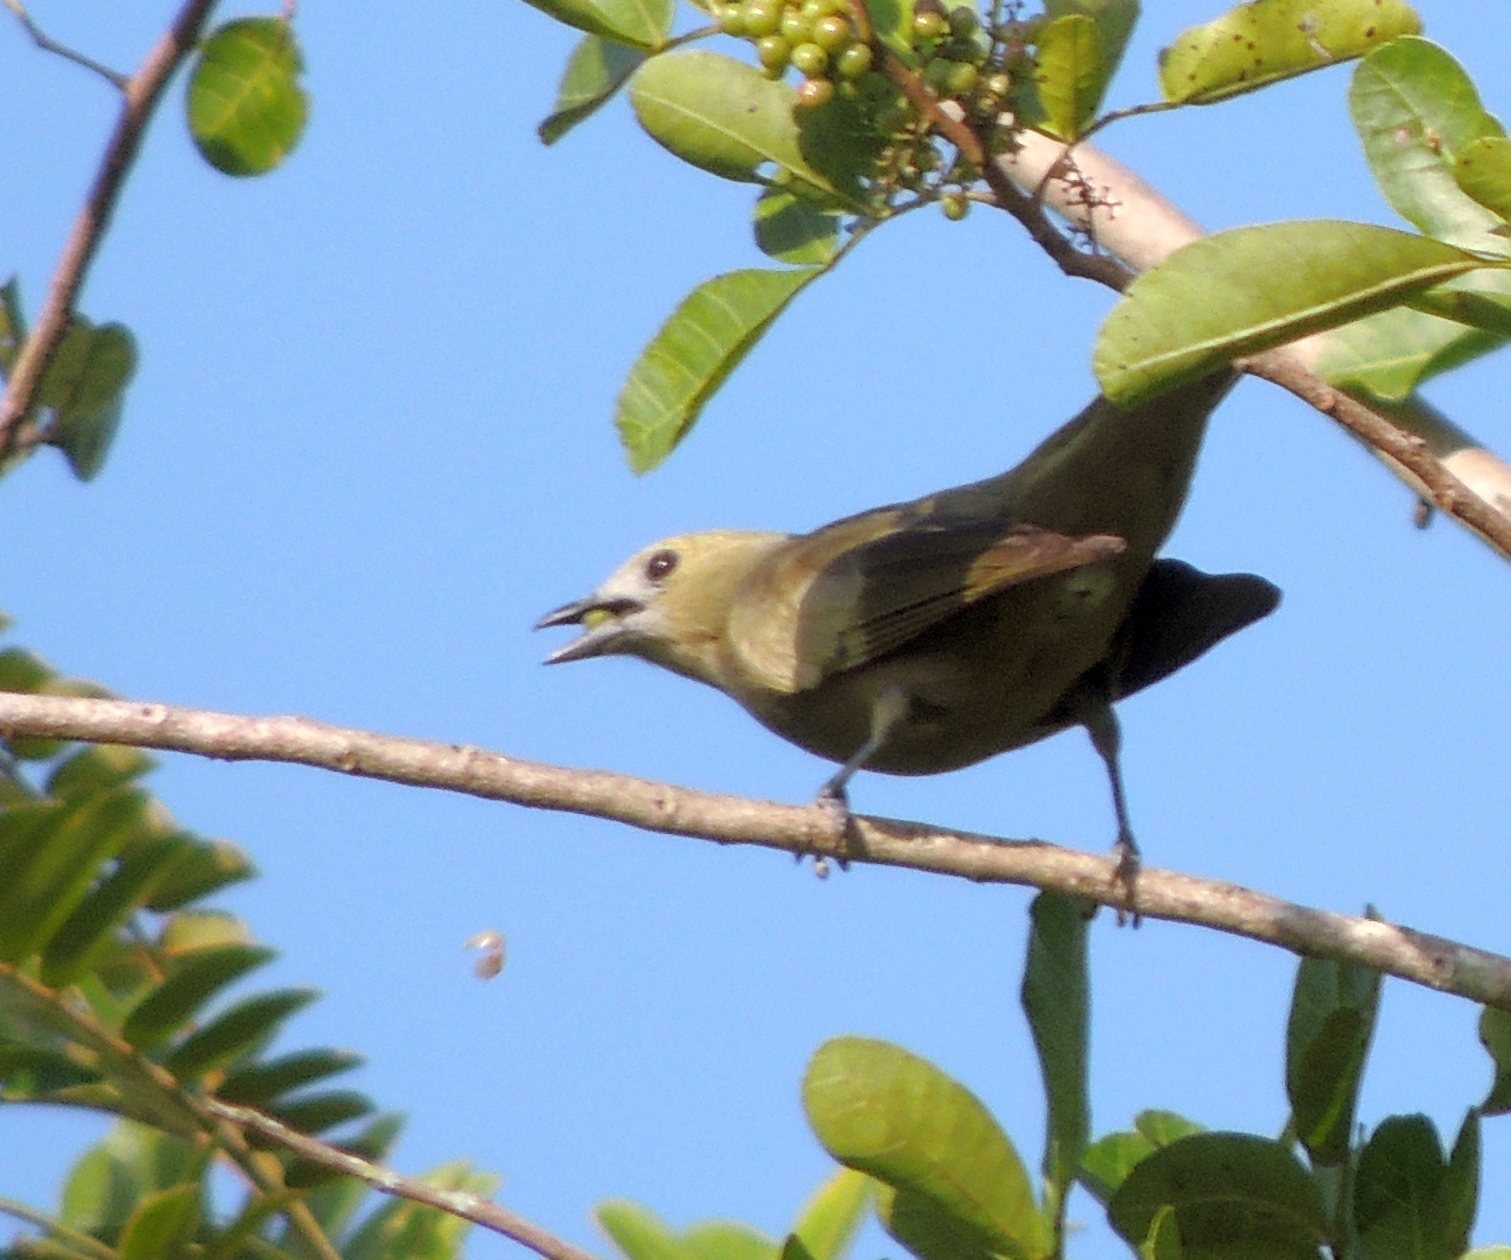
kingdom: Animalia
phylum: Chordata
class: Aves
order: Passeriformes
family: Thraupidae
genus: Thraupis
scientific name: Thraupis palmarum
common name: Palm tanager
